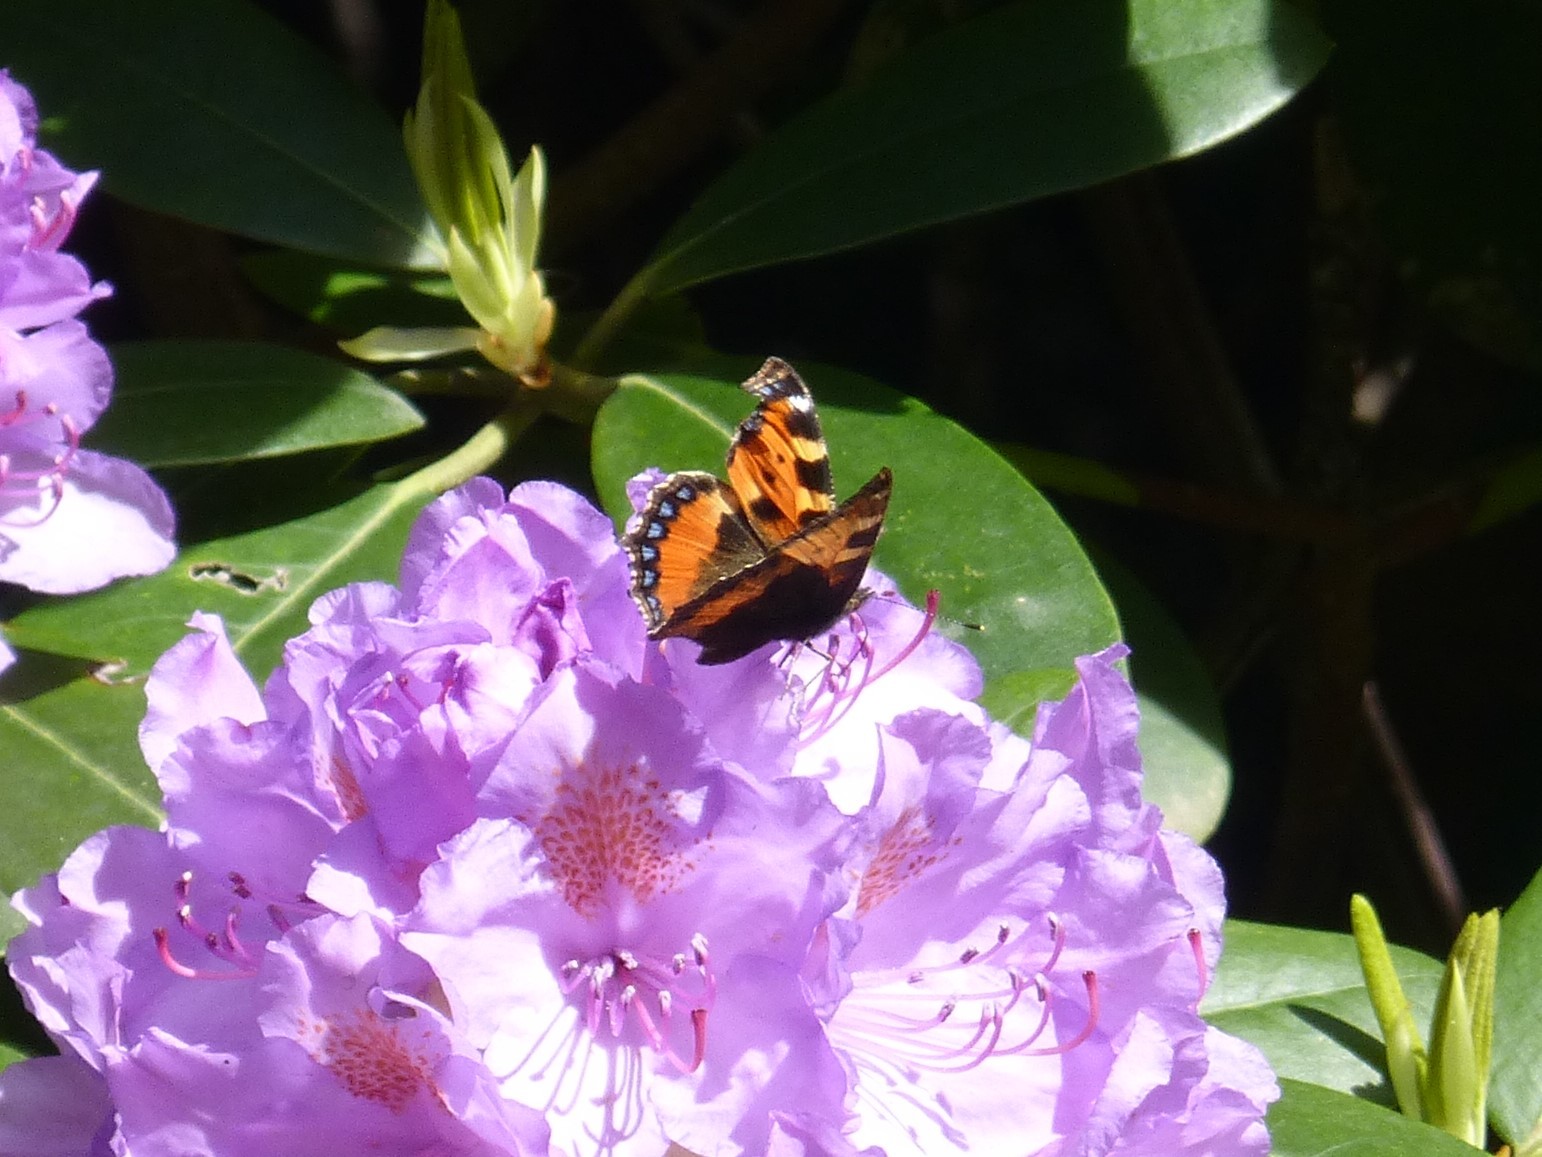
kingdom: Animalia
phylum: Arthropoda
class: Insecta
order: Lepidoptera
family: Nymphalidae
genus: Aglais
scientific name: Aglais urticae
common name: Small tortoiseshell
